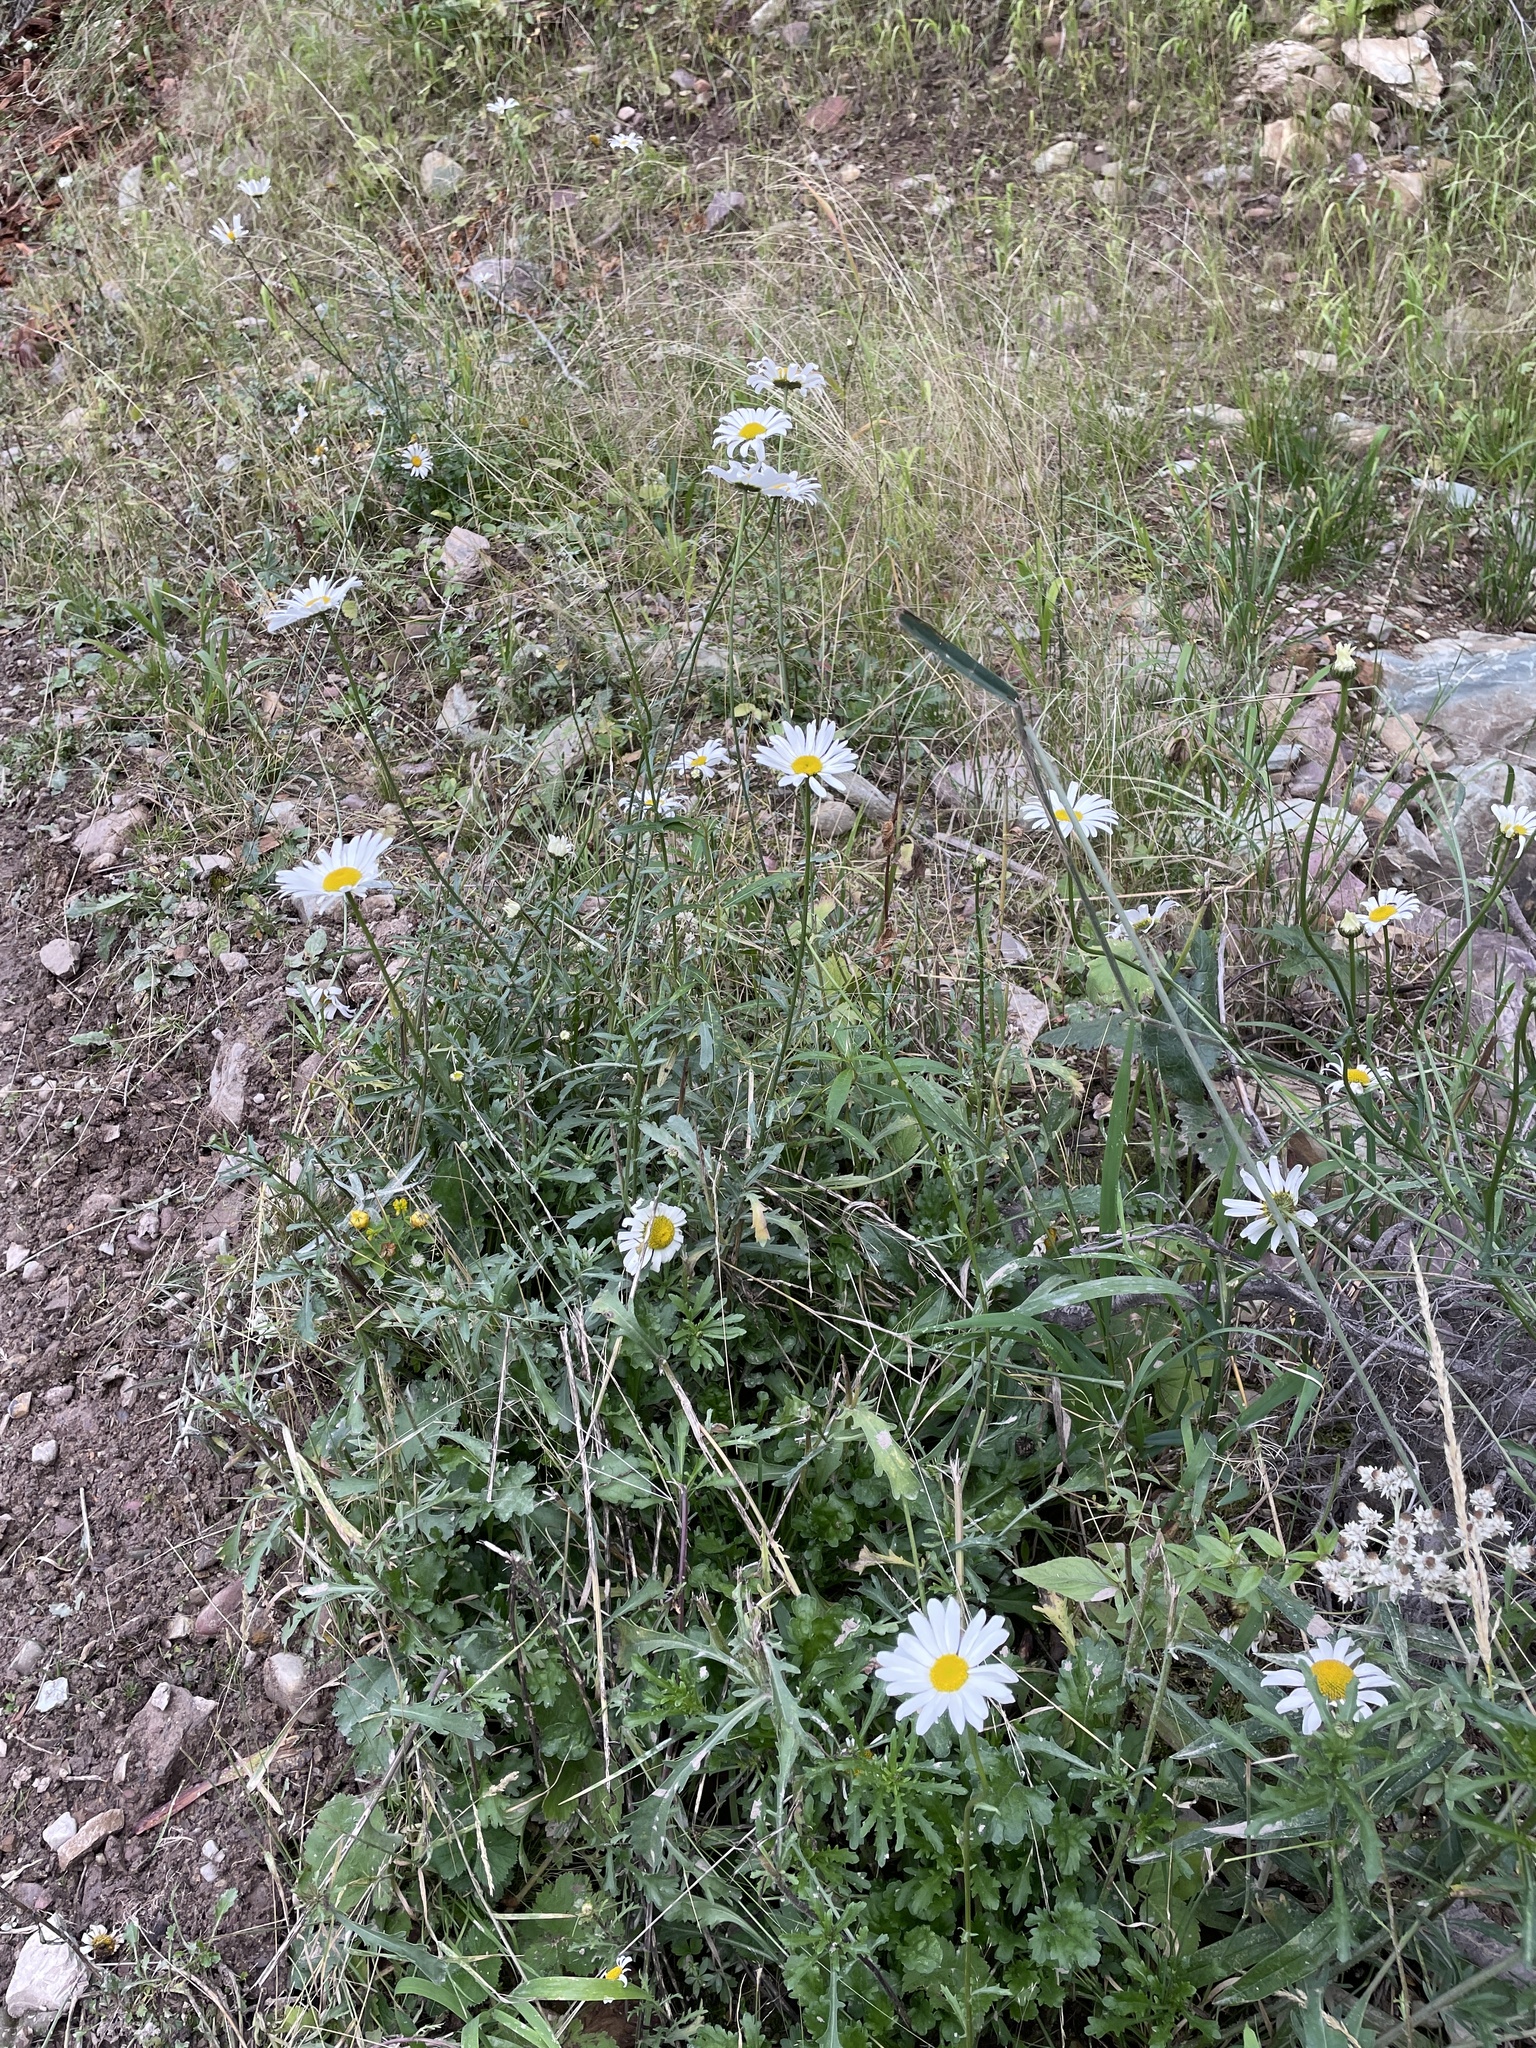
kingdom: Plantae
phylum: Tracheophyta
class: Magnoliopsida
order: Asterales
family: Asteraceae
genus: Leucanthemum
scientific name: Leucanthemum vulgare
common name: Oxeye daisy
